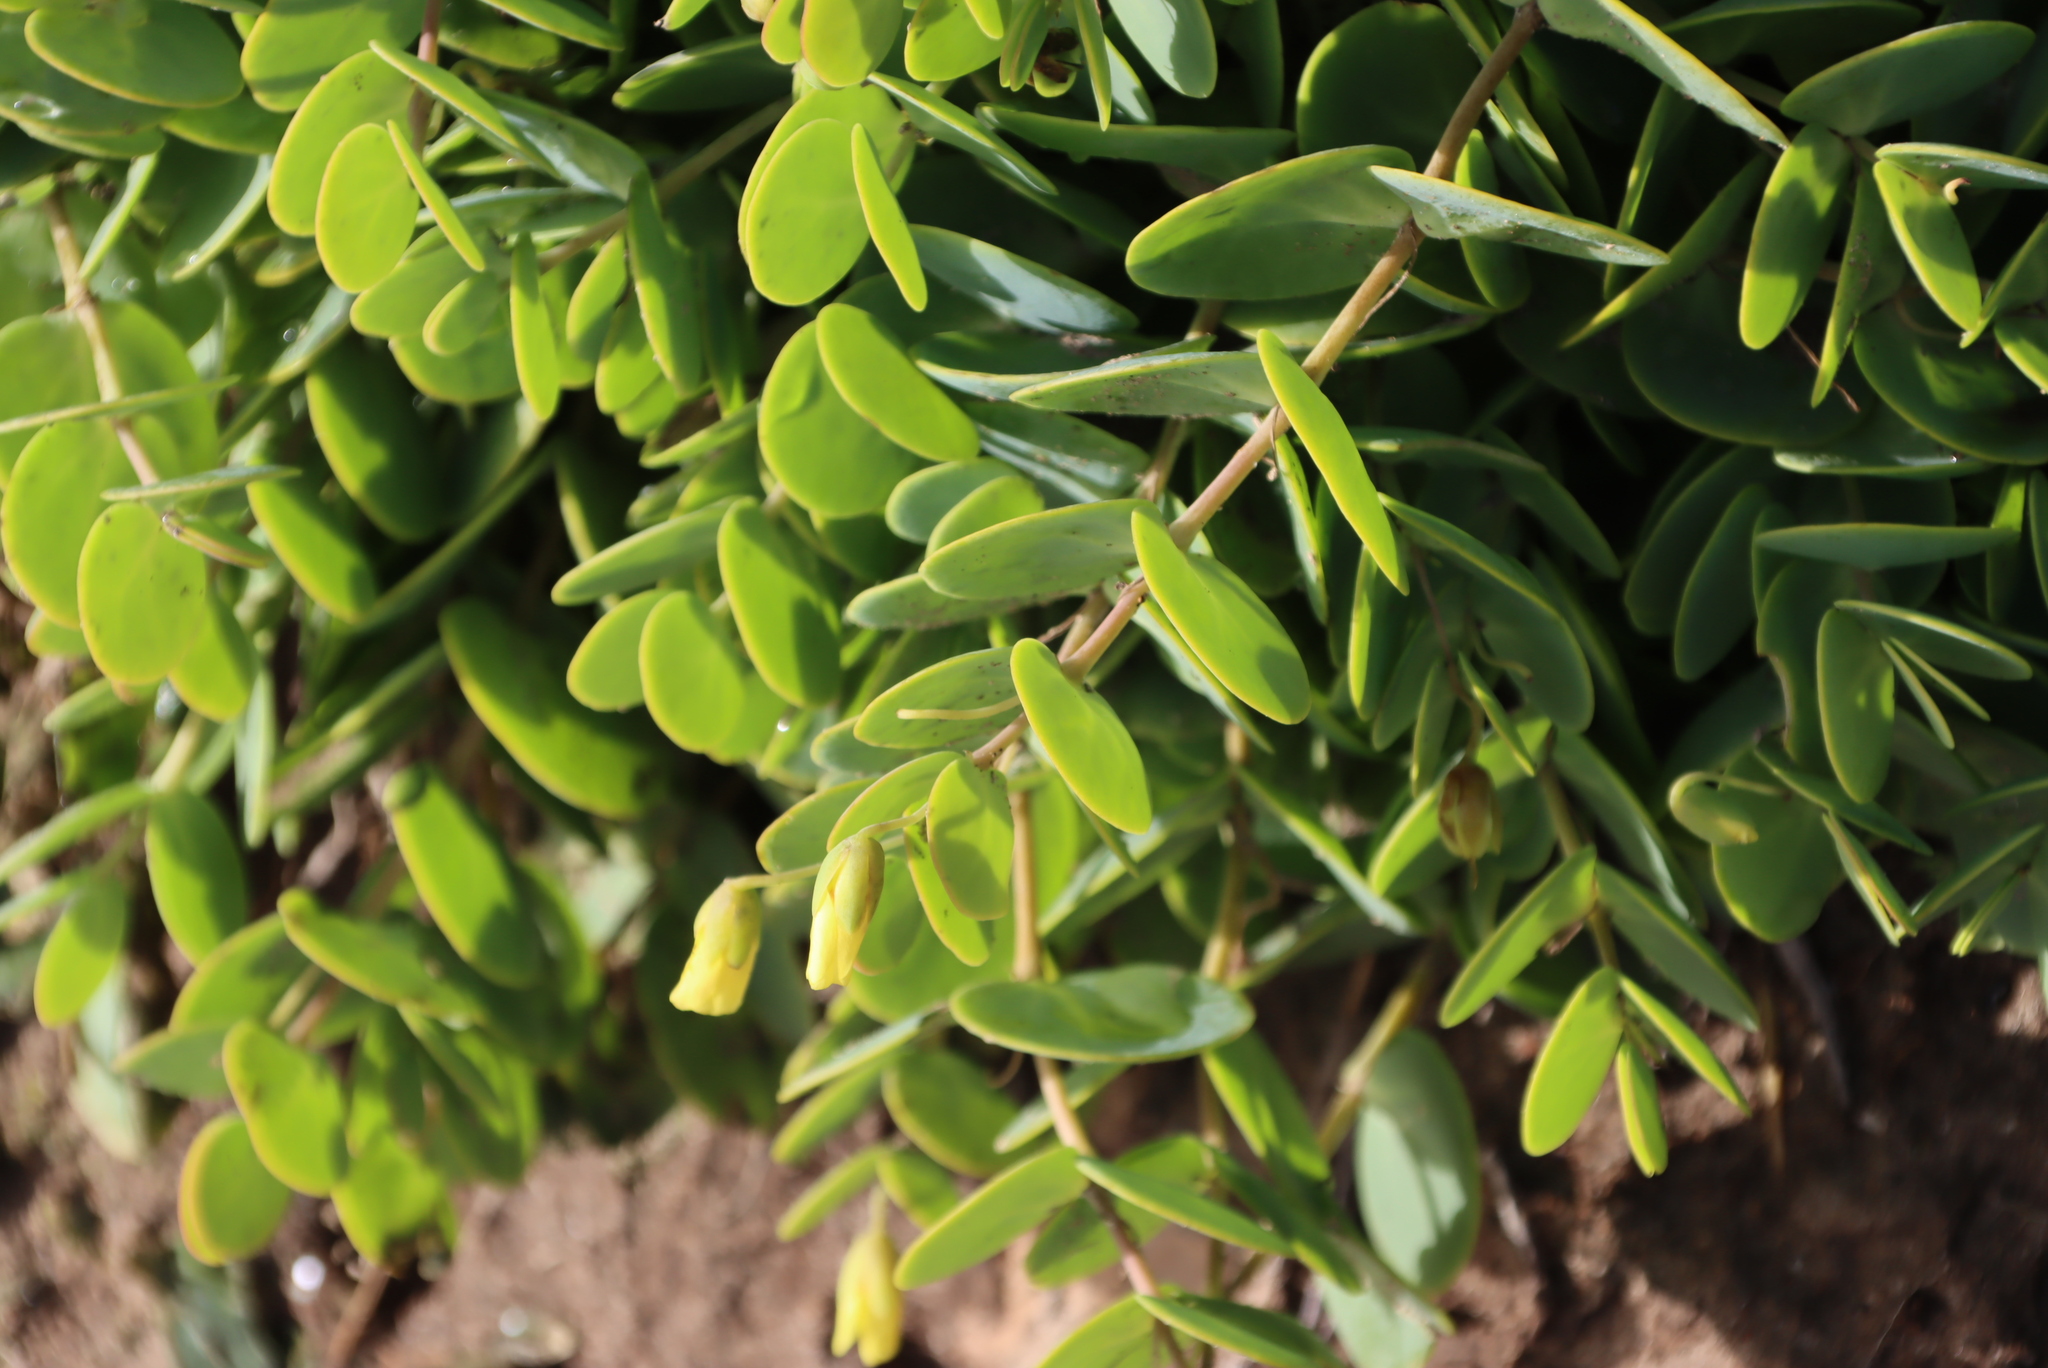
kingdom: Plantae
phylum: Tracheophyta
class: Magnoliopsida
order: Zygophyllales
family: Zygophyllaceae
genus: Roepera
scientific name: Roepera cordifolia
